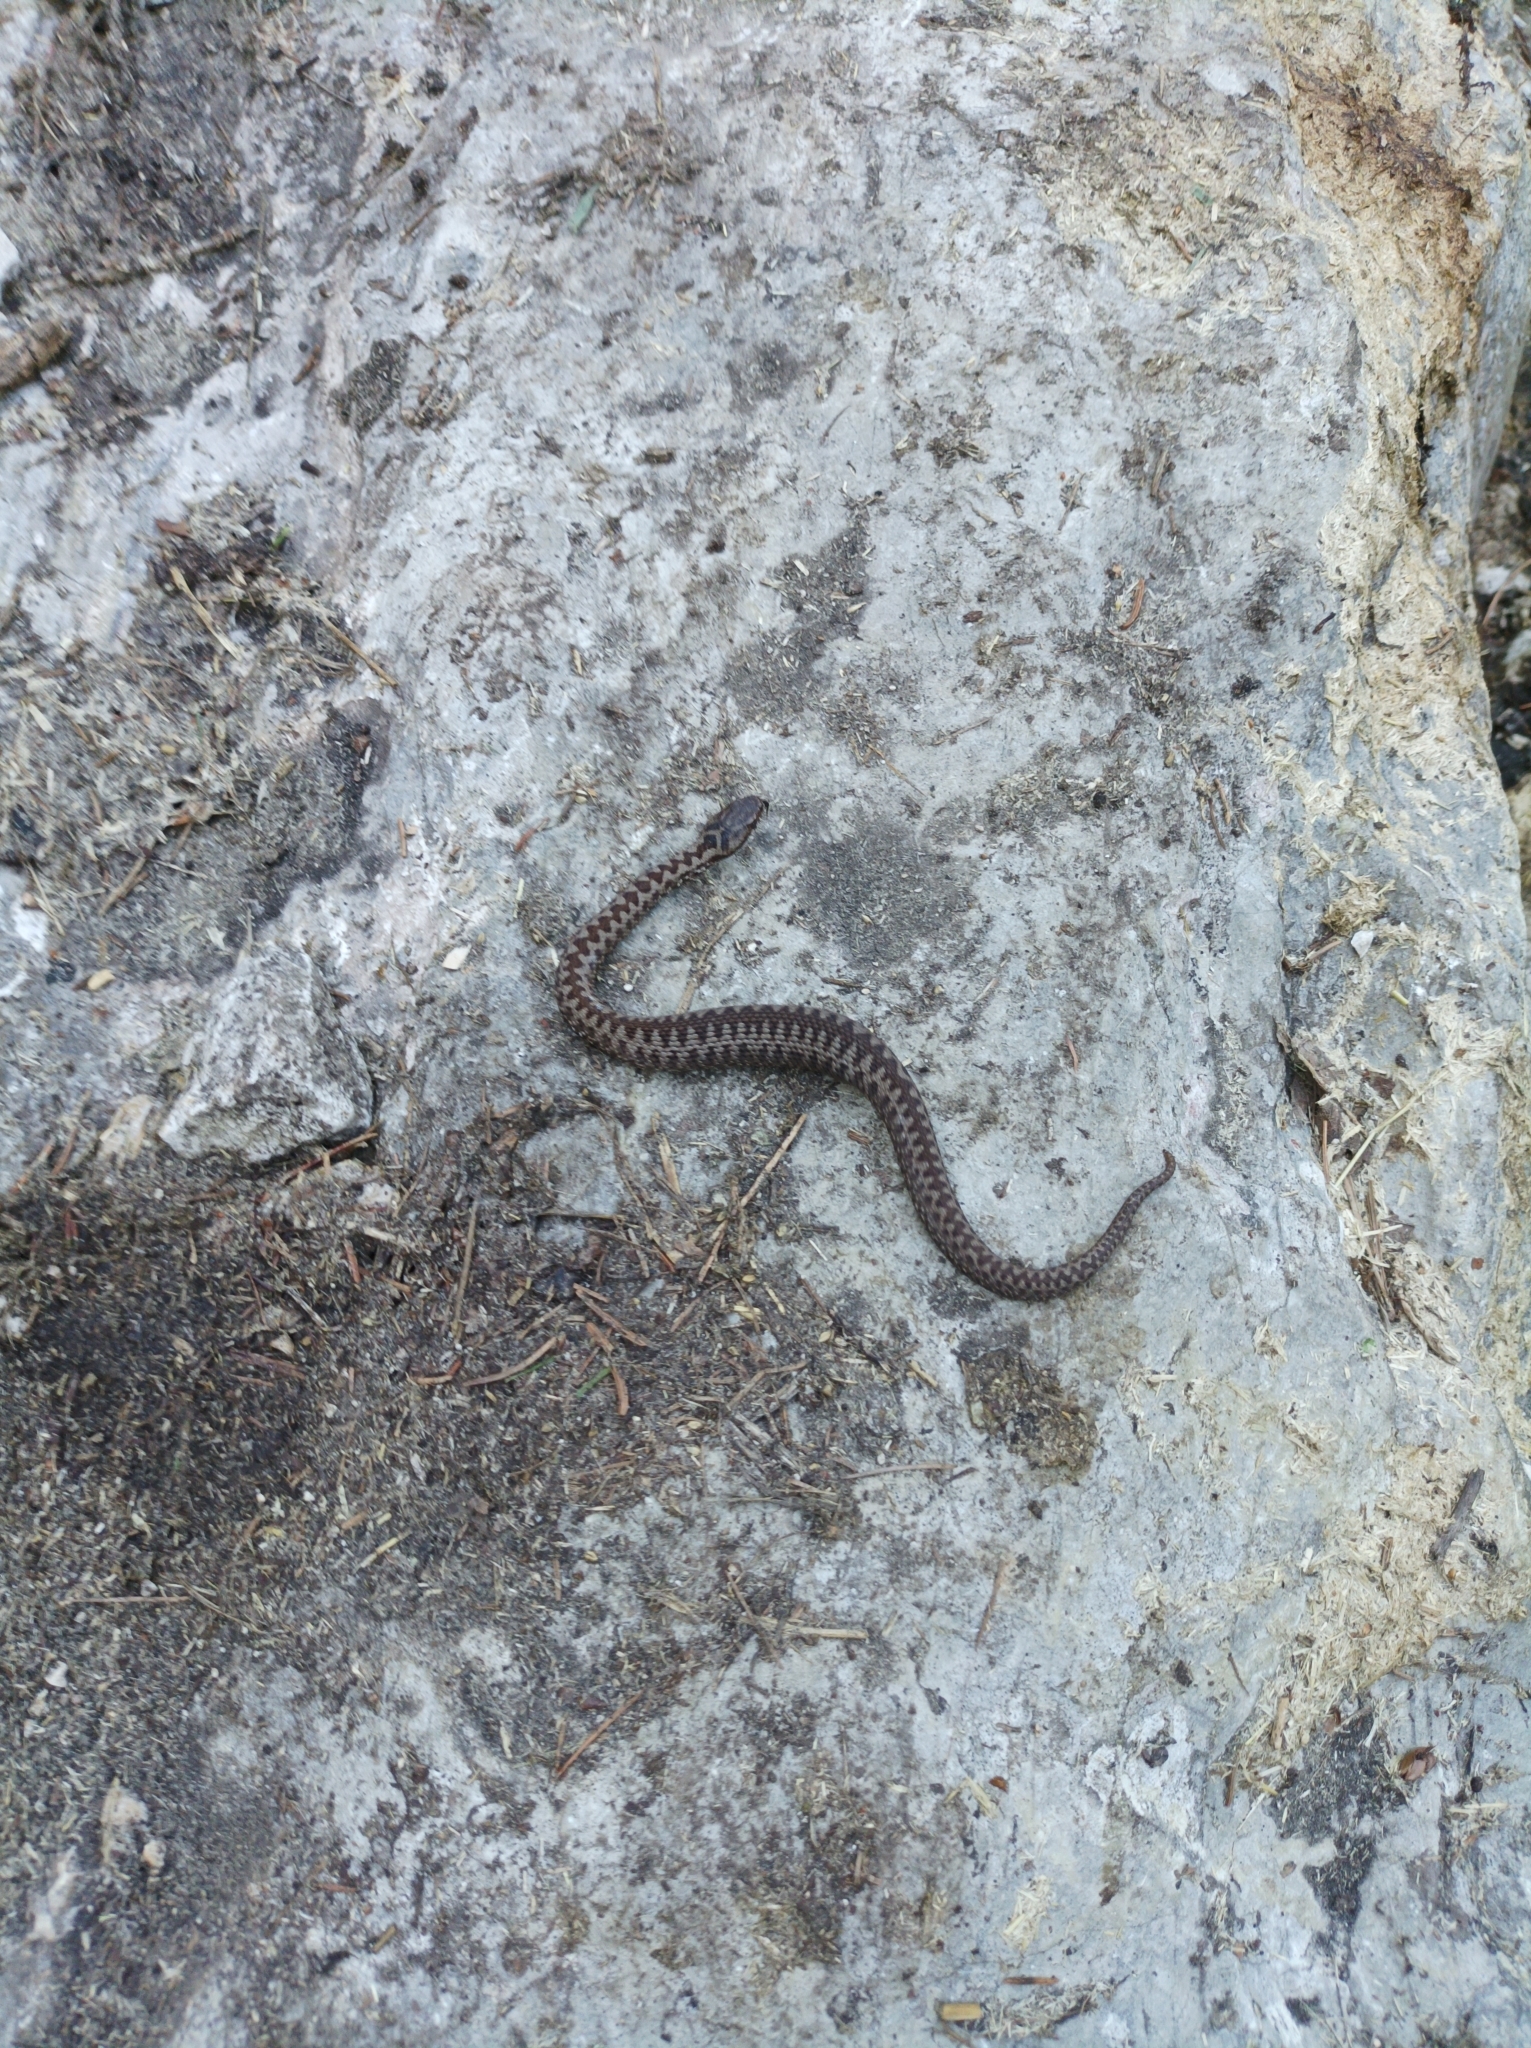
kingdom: Animalia
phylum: Chordata
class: Squamata
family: Viperidae
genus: Vipera
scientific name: Vipera berus
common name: Adder
